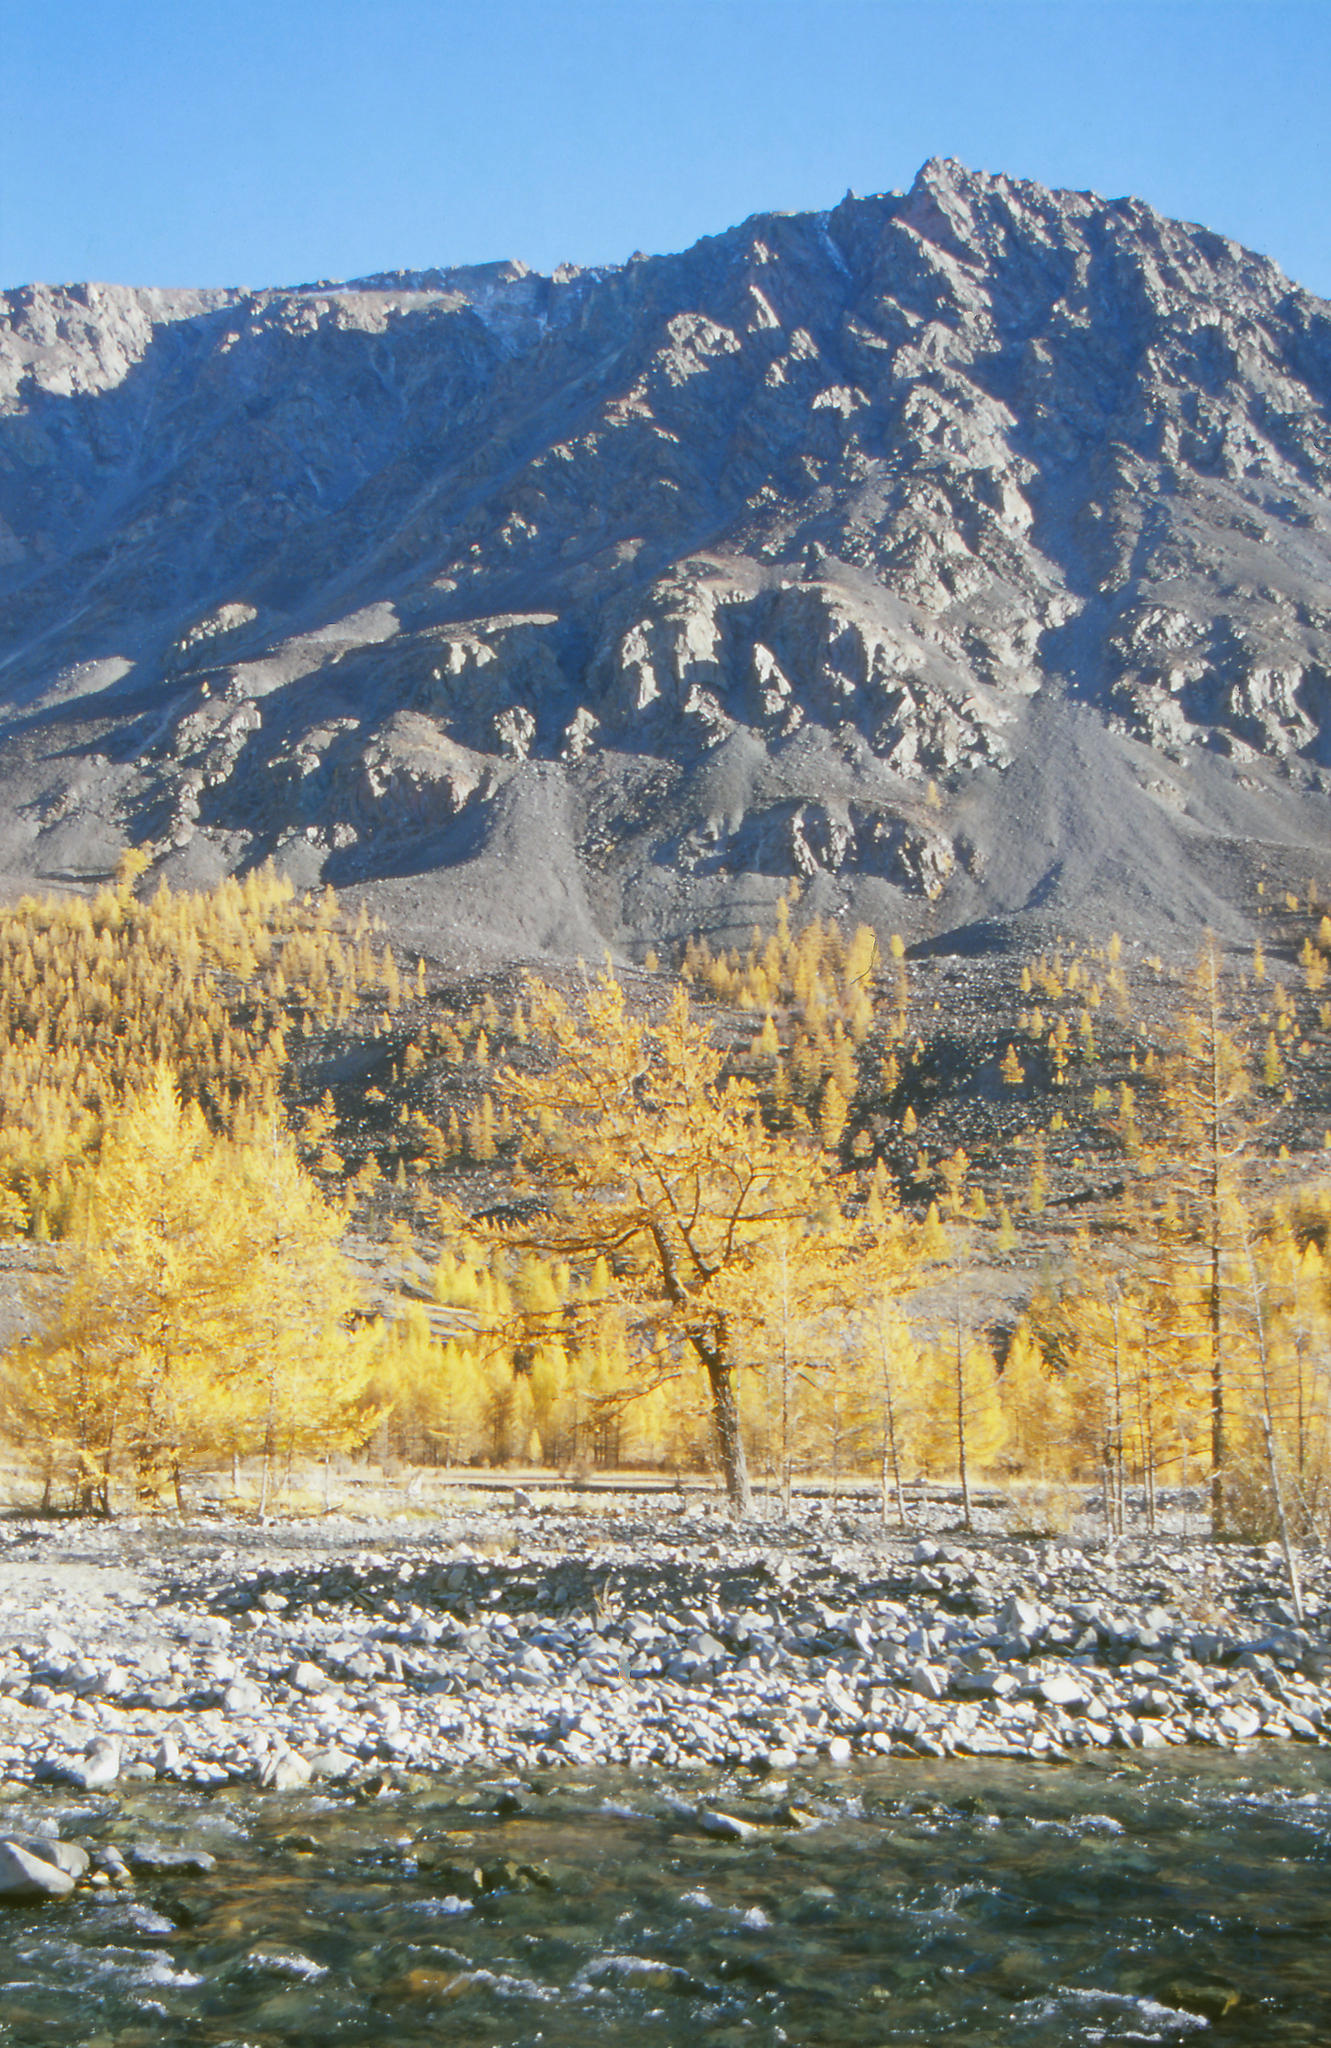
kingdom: Plantae
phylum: Tracheophyta
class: Pinopsida
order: Pinales
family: Pinaceae
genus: Larix
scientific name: Larix sibirica
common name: Siberian larch
